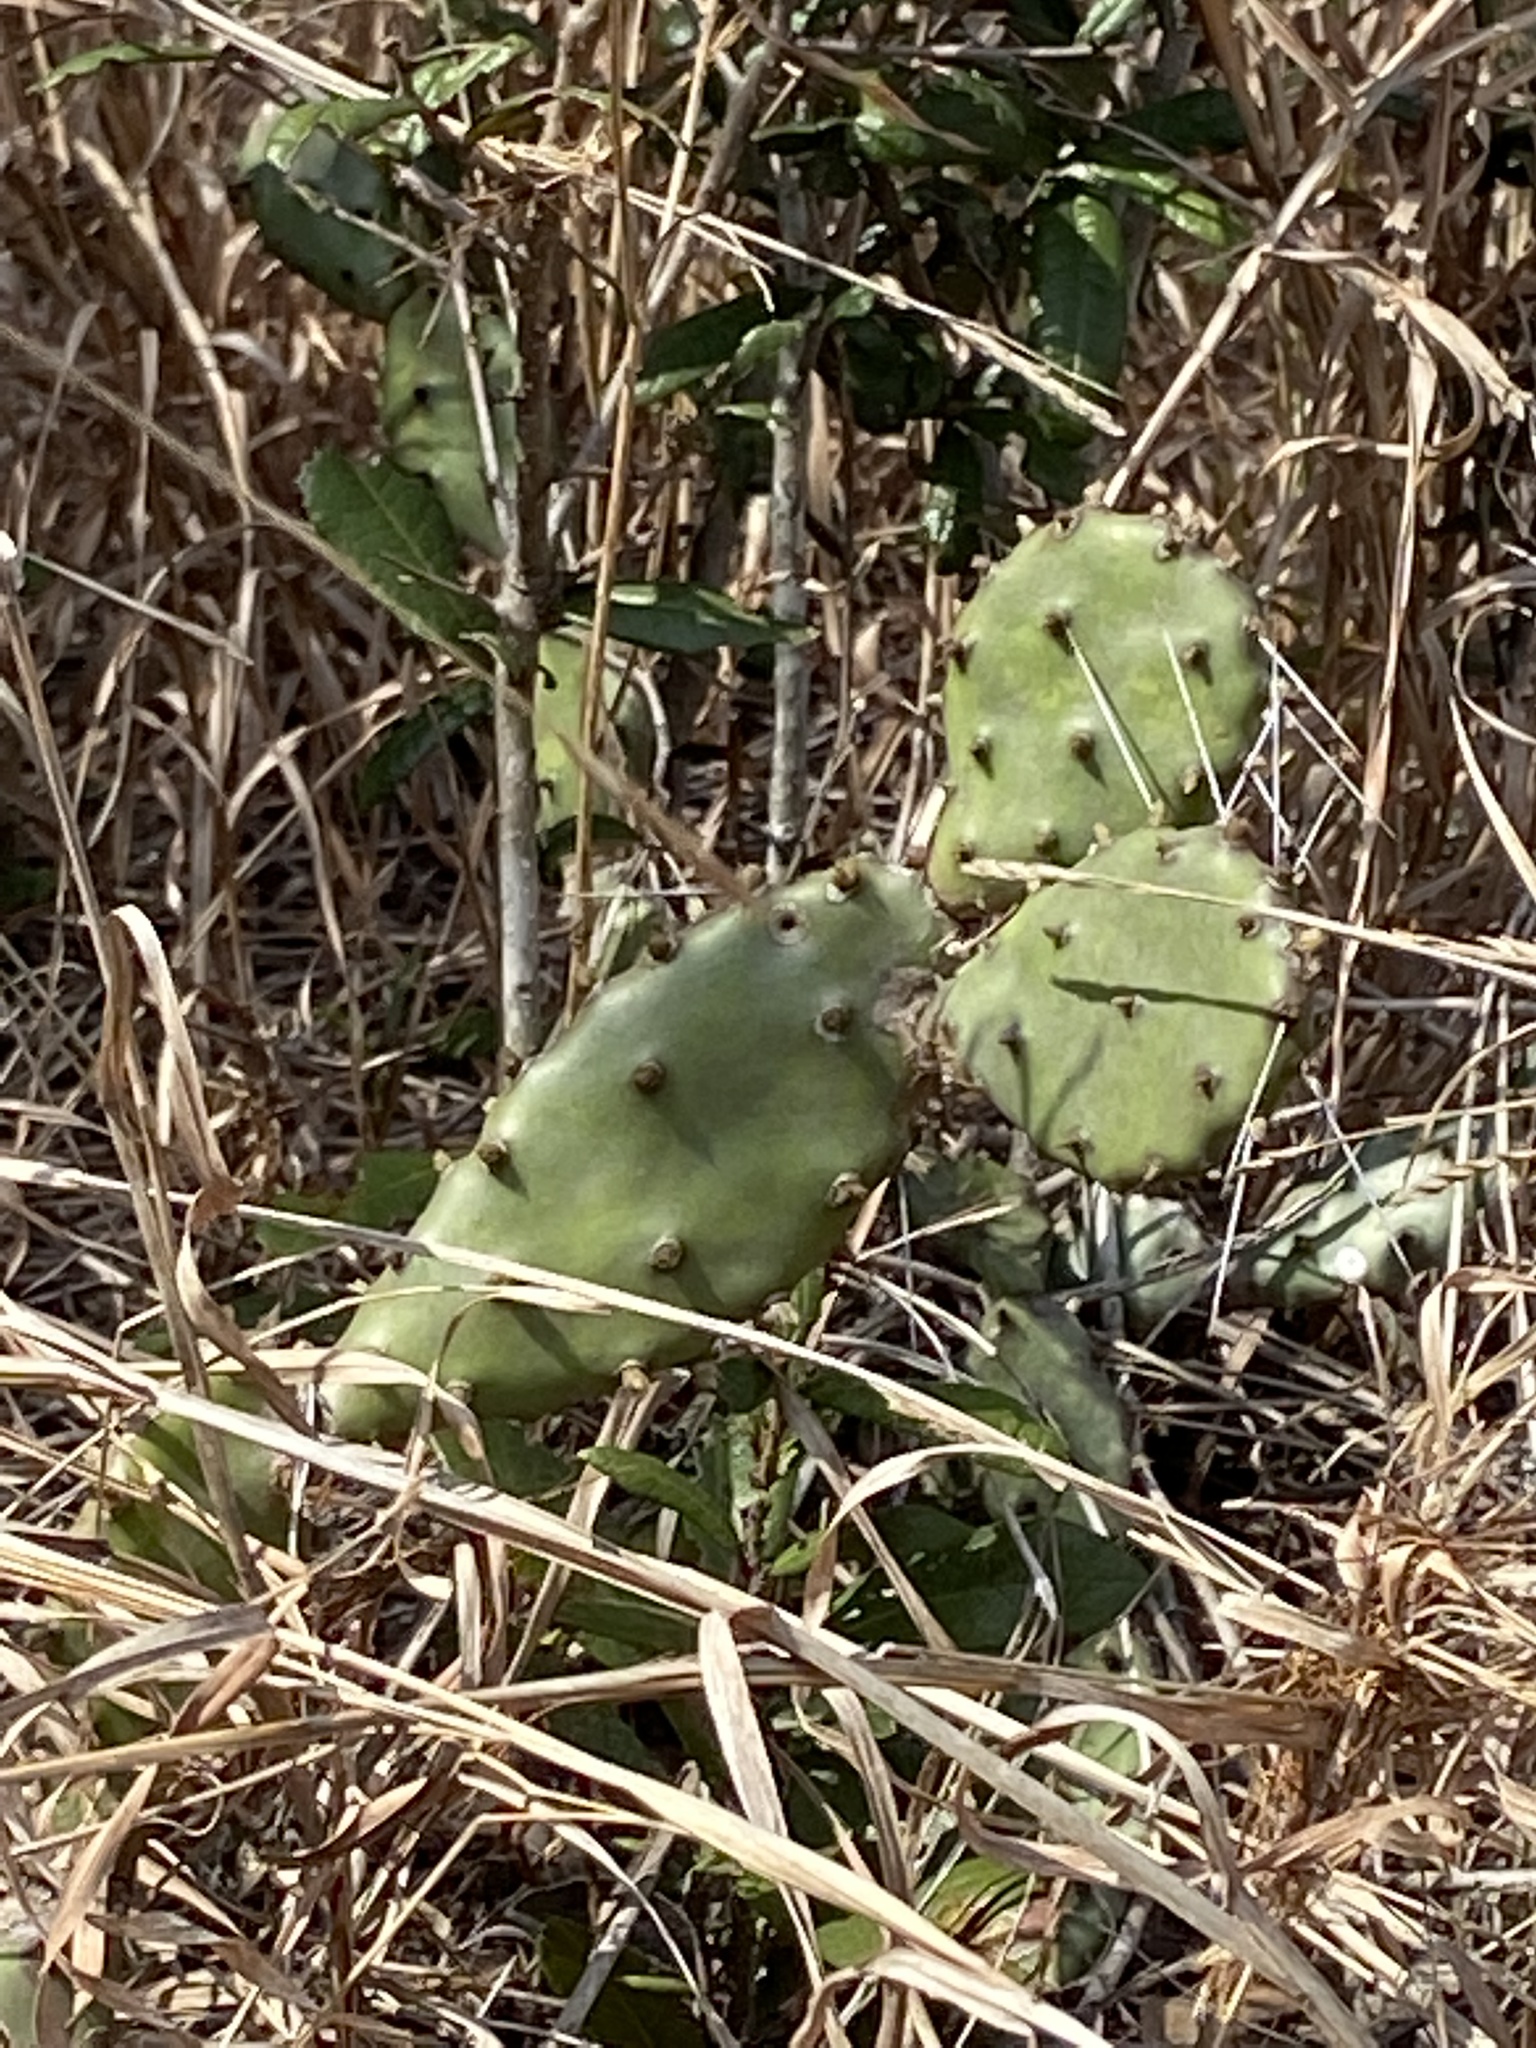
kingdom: Plantae
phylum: Tracheophyta
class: Magnoliopsida
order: Caryophyllales
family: Cactaceae
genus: Opuntia
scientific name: Opuntia austrina
